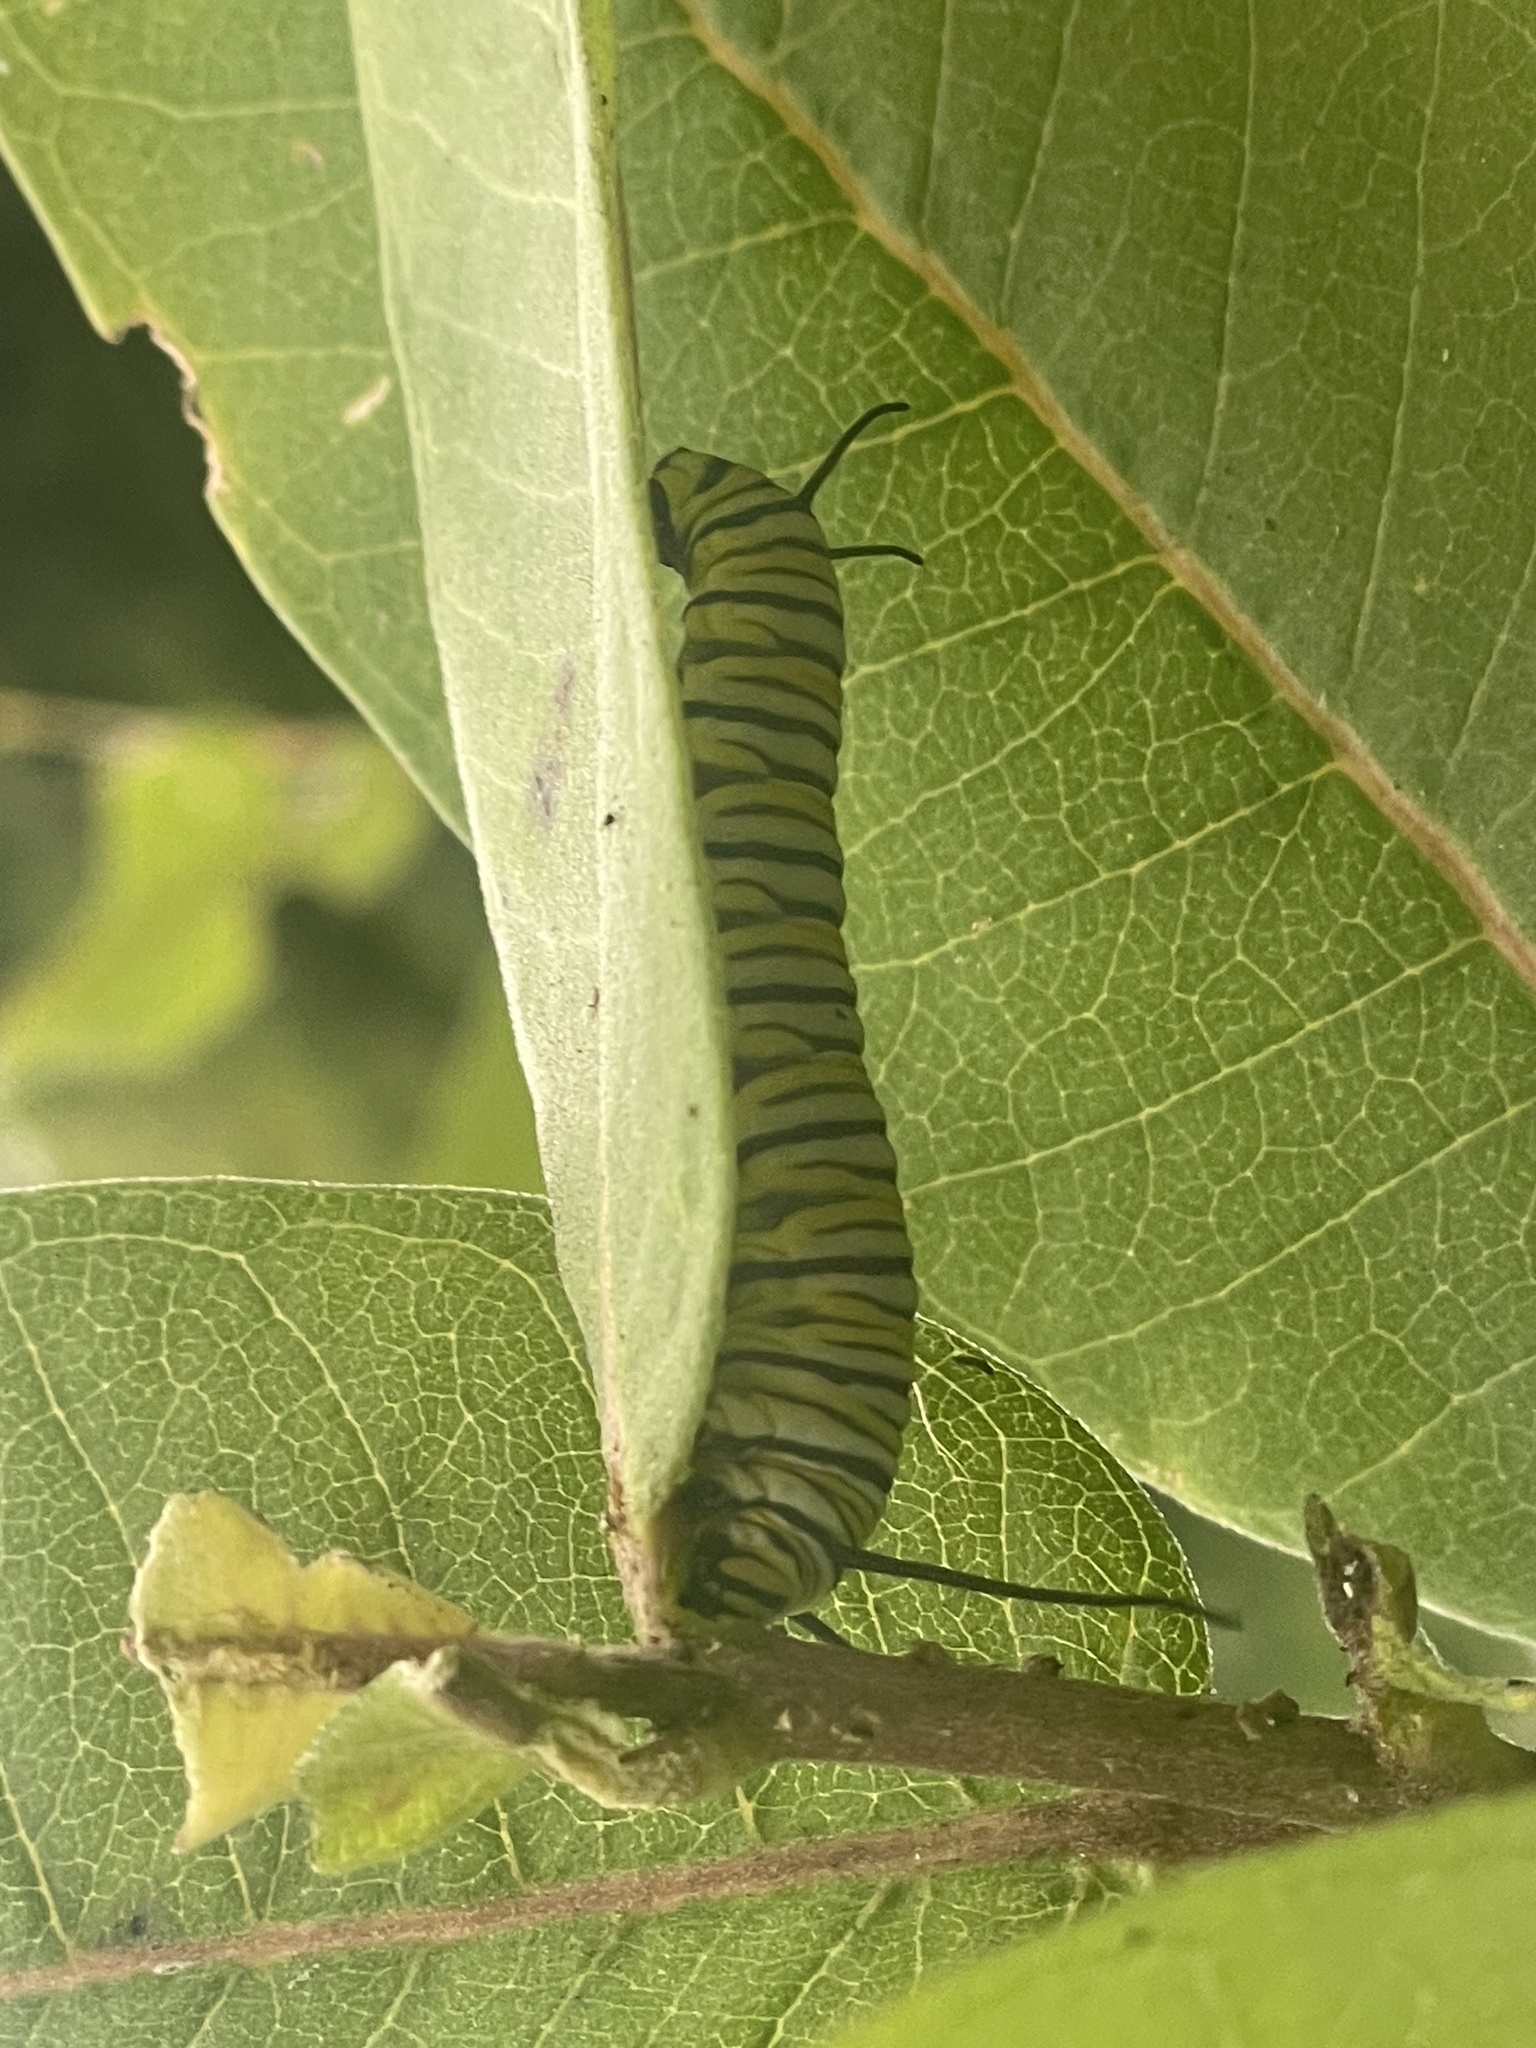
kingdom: Animalia
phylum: Arthropoda
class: Insecta
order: Lepidoptera
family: Nymphalidae
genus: Danaus
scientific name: Danaus plexippus
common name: Monarch
